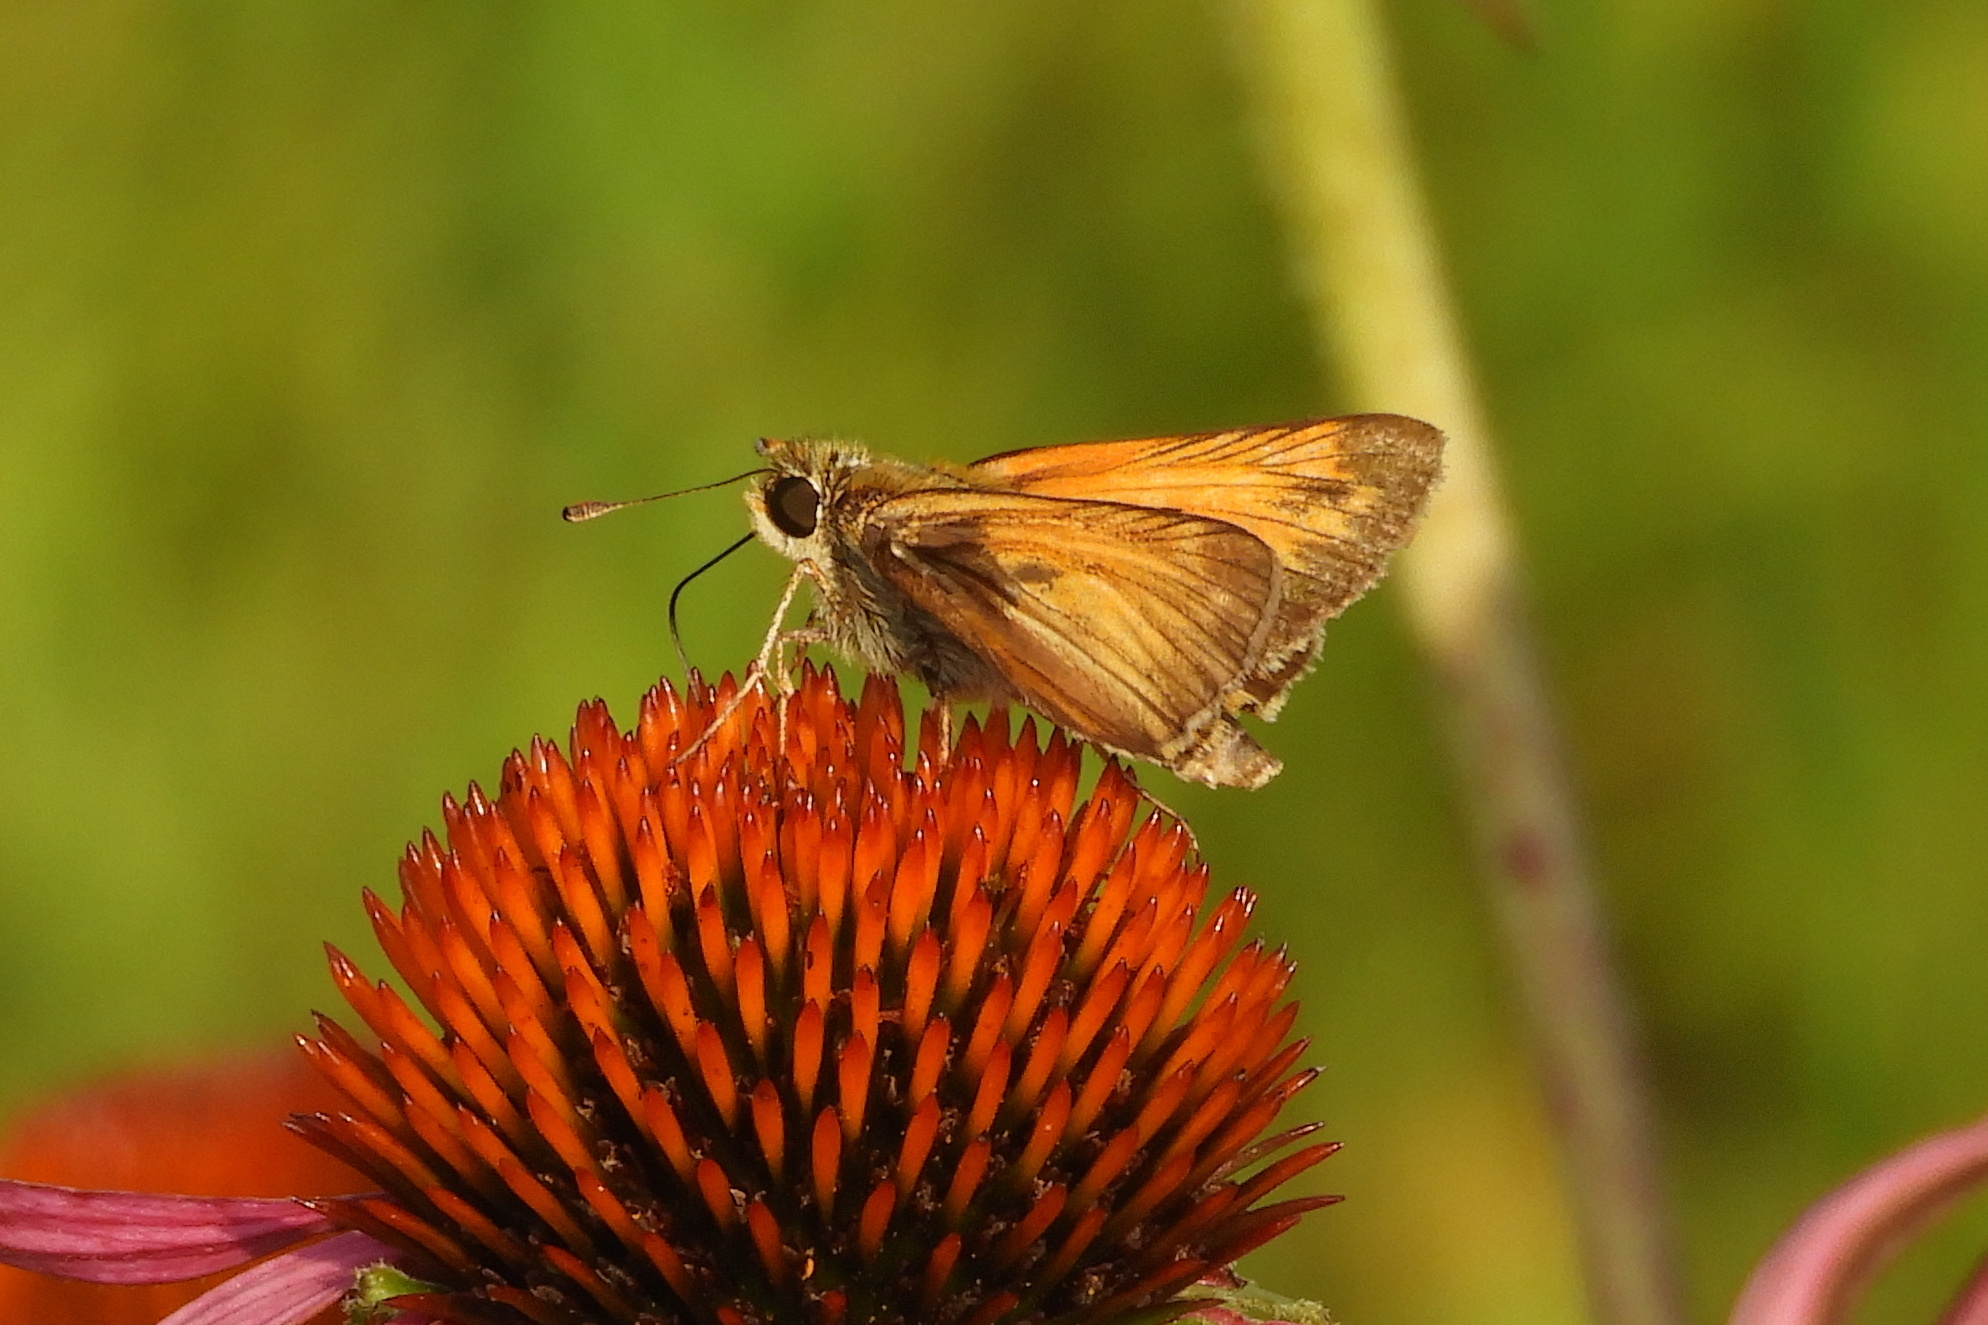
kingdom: Animalia
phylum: Arthropoda
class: Insecta
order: Lepidoptera
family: Hesperiidae
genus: Atalopedes
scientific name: Atalopedes
